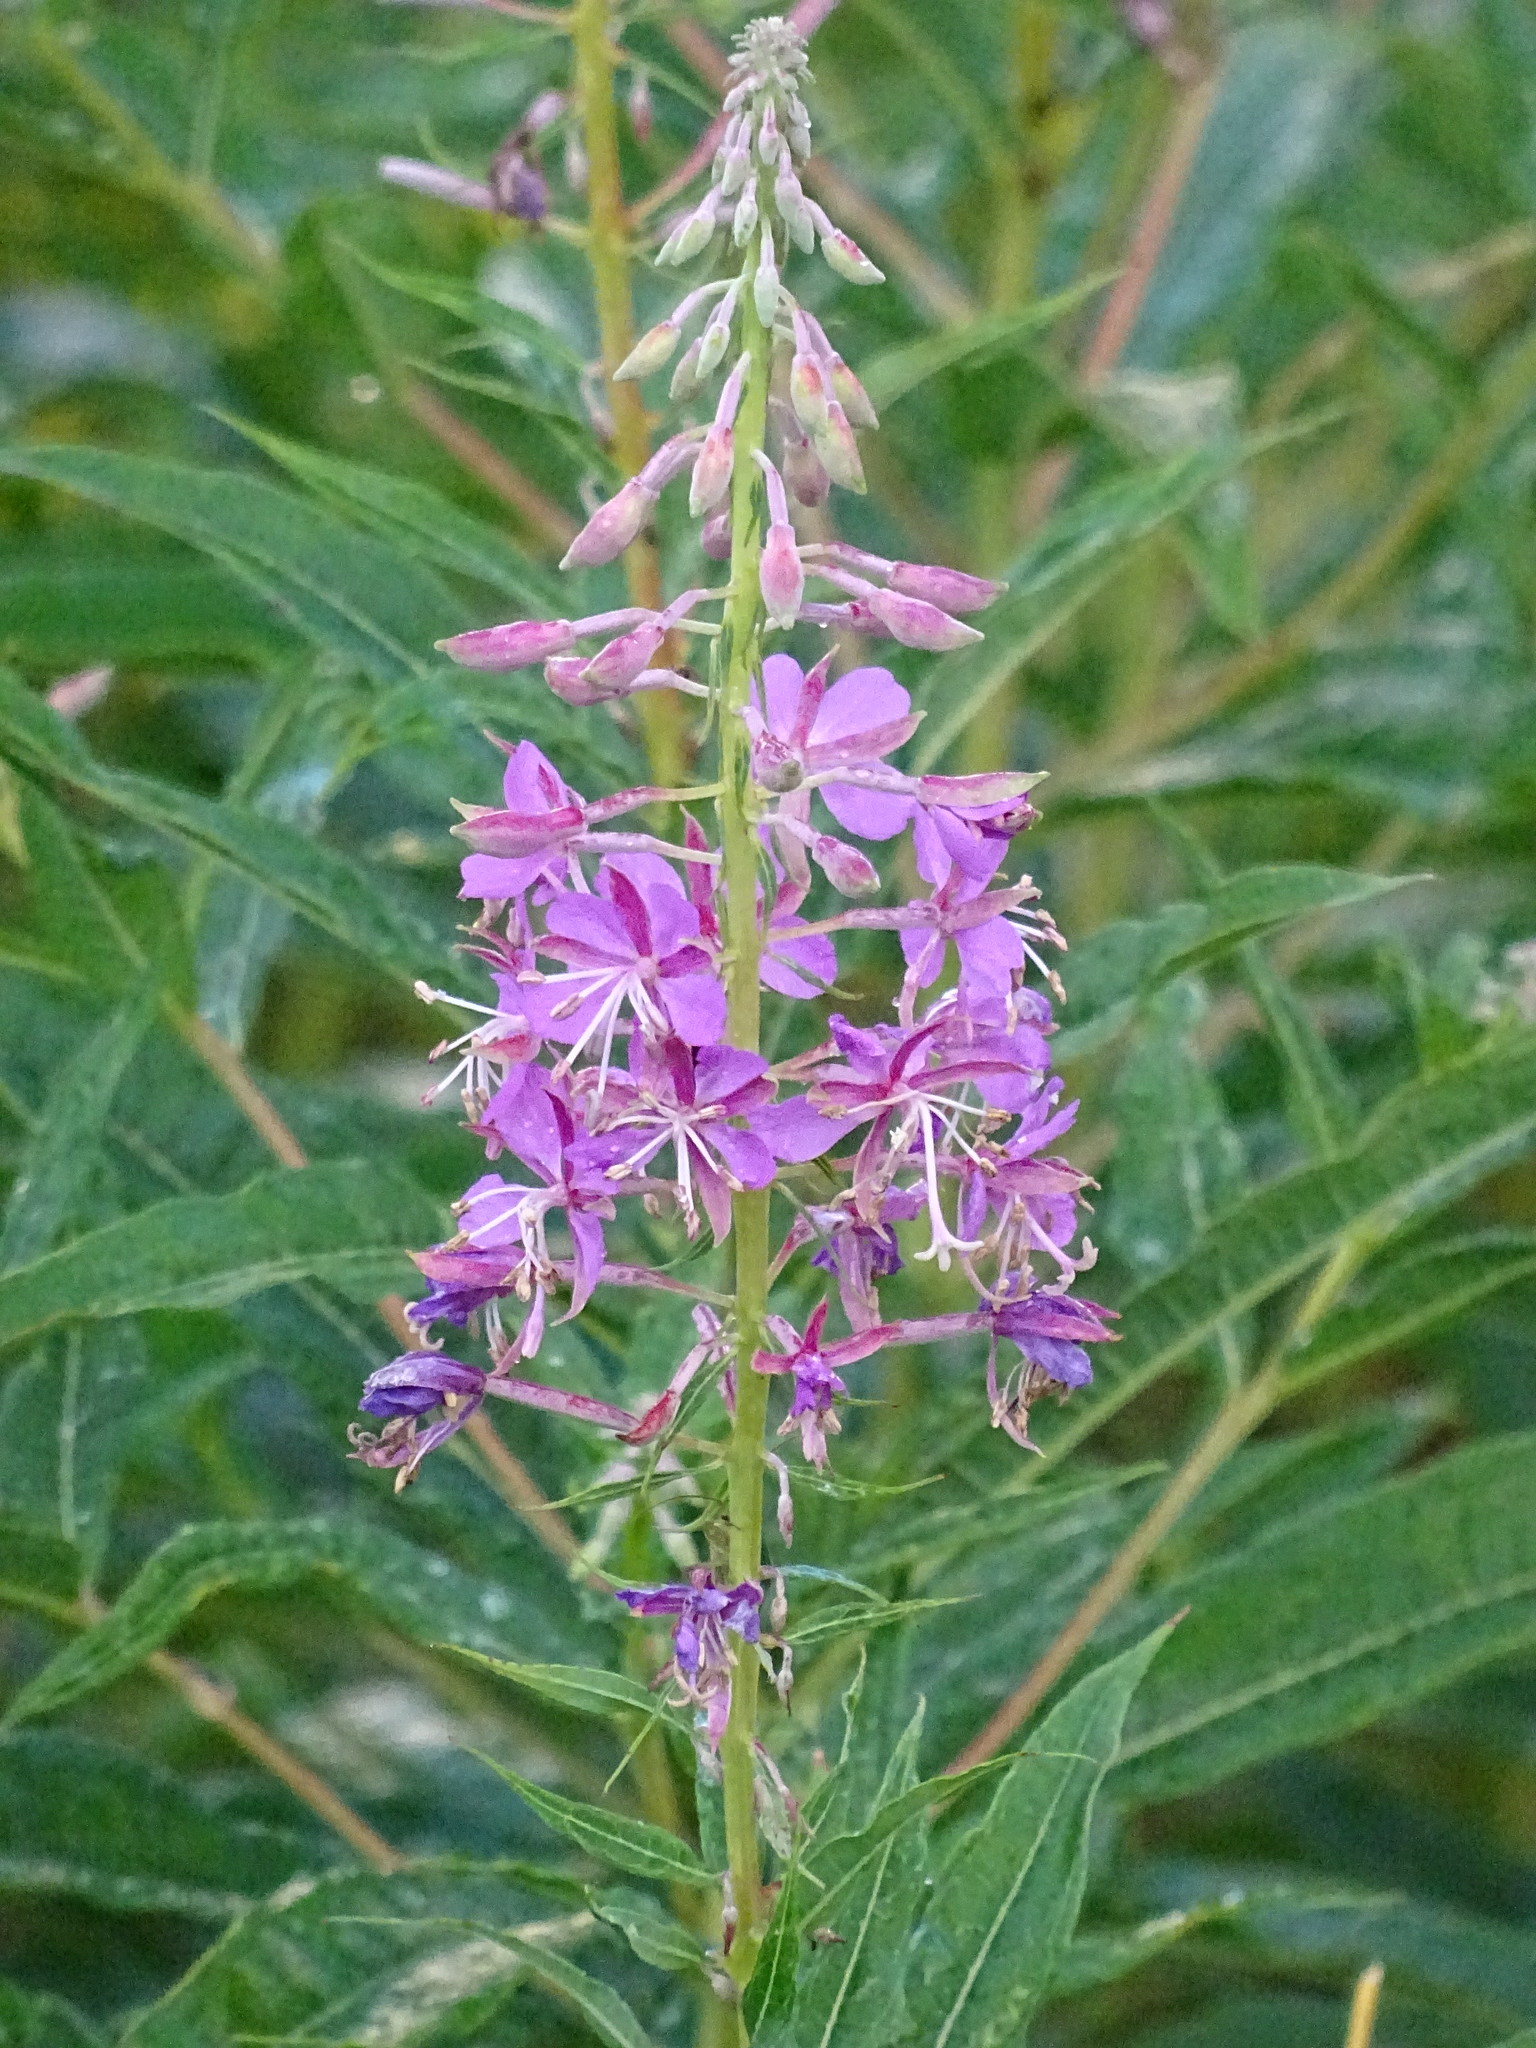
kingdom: Plantae
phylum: Tracheophyta
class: Magnoliopsida
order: Myrtales
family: Onagraceae
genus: Chamaenerion
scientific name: Chamaenerion angustifolium
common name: Fireweed
